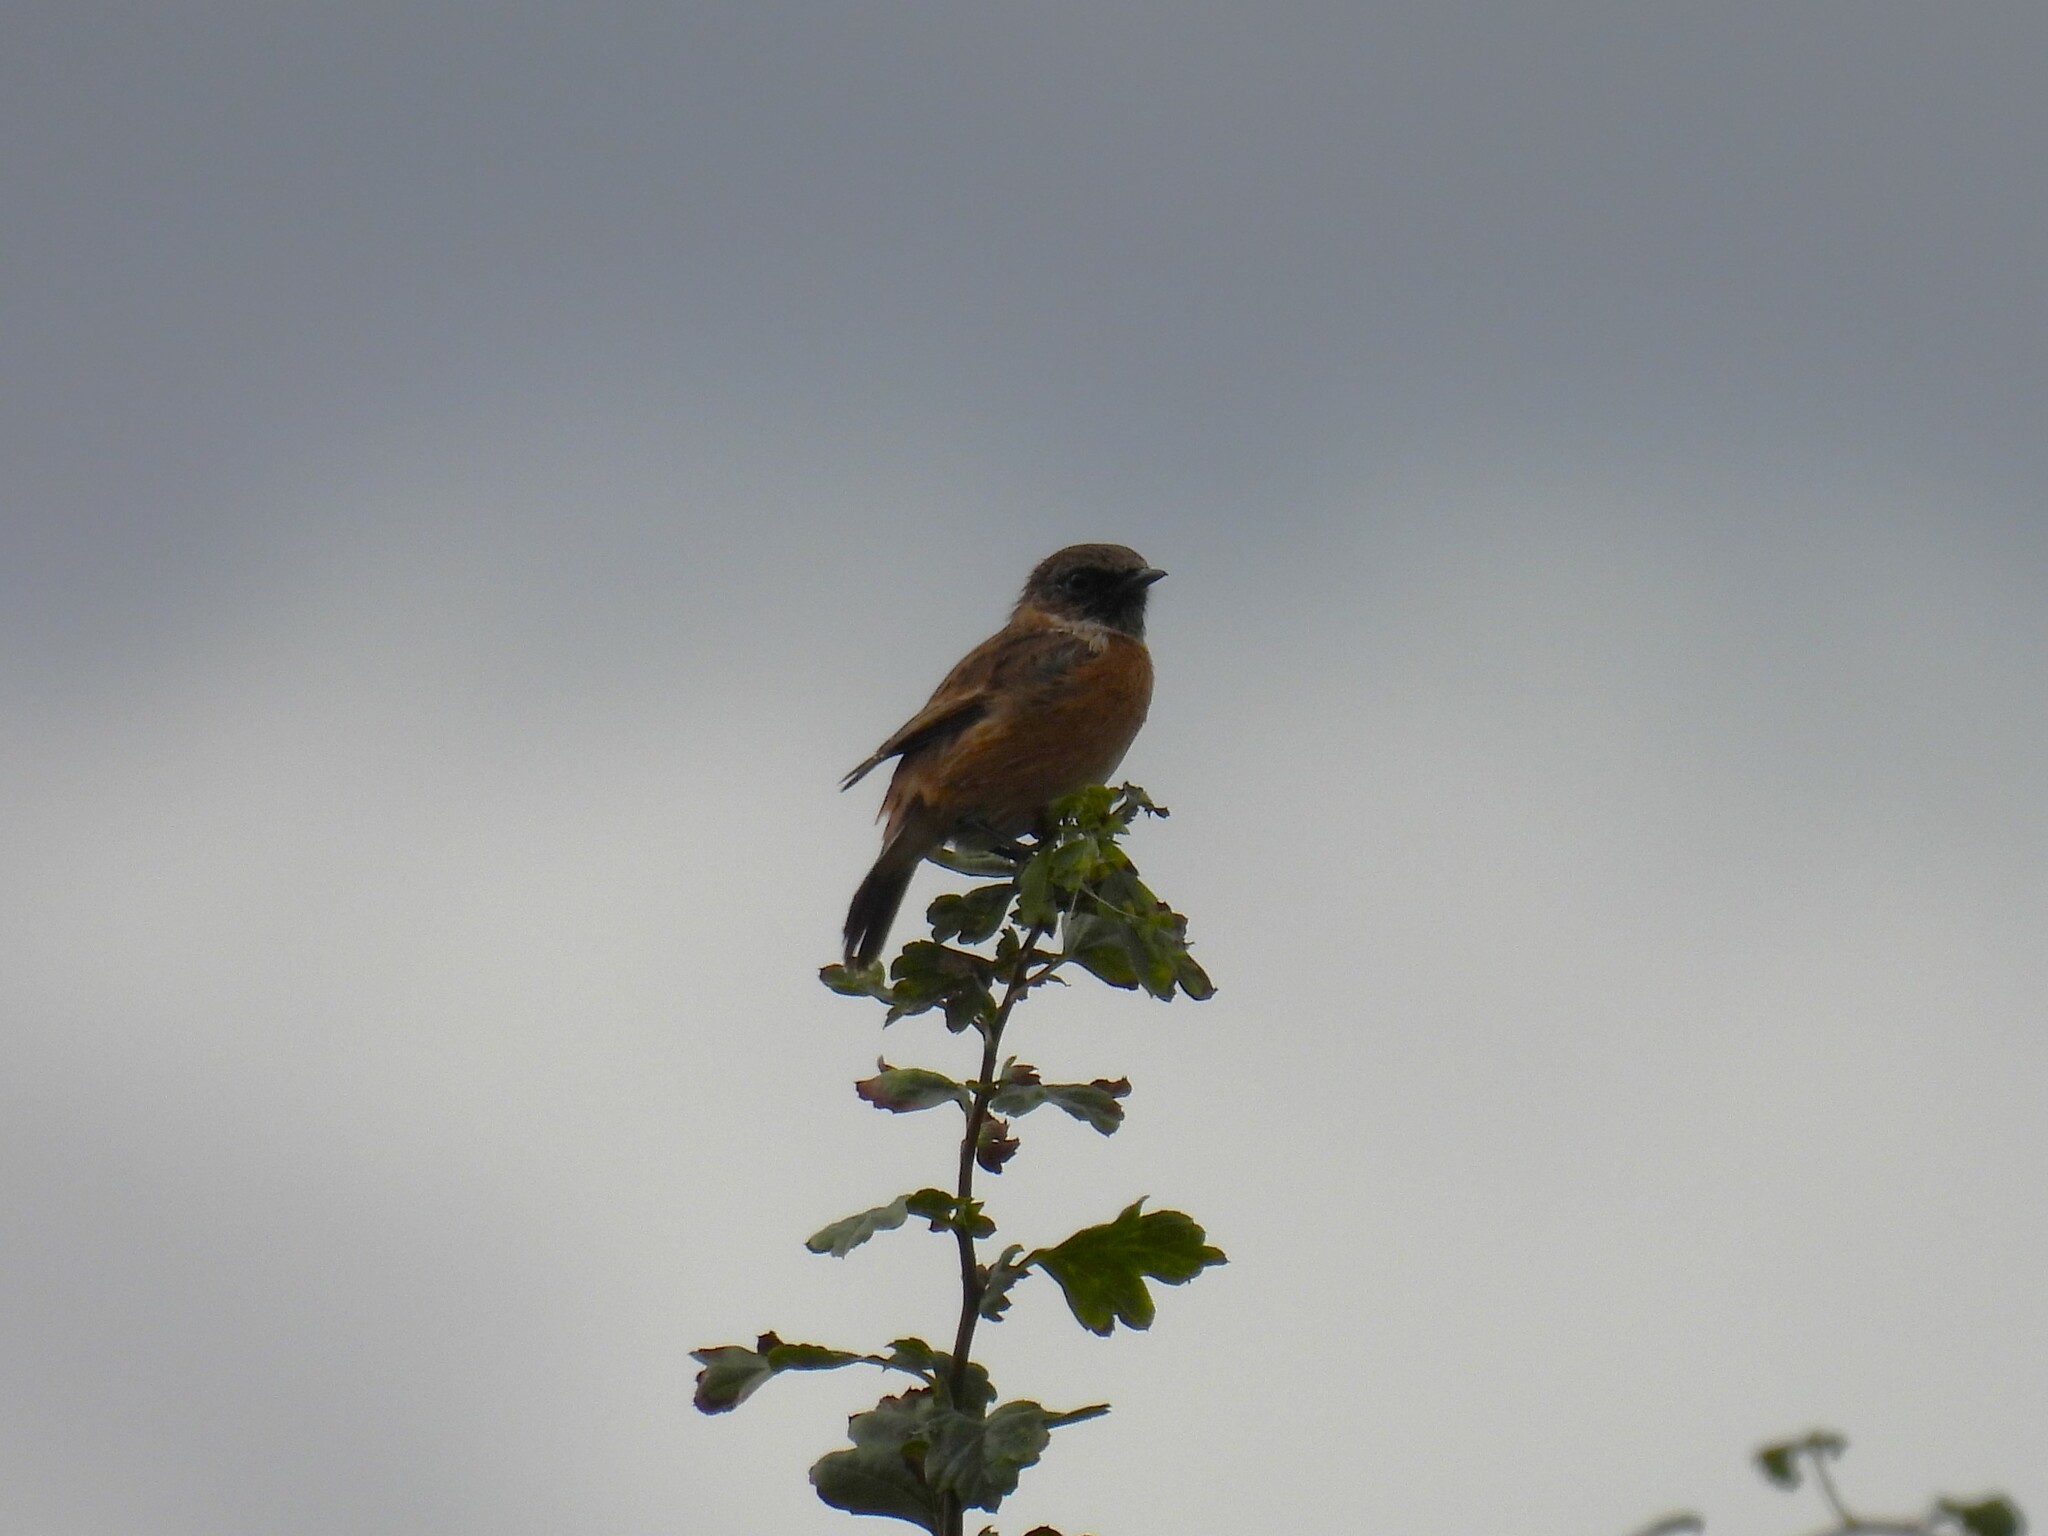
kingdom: Animalia
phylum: Chordata
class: Aves
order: Passeriformes
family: Muscicapidae
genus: Saxicola
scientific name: Saxicola rubicola
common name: European stonechat
